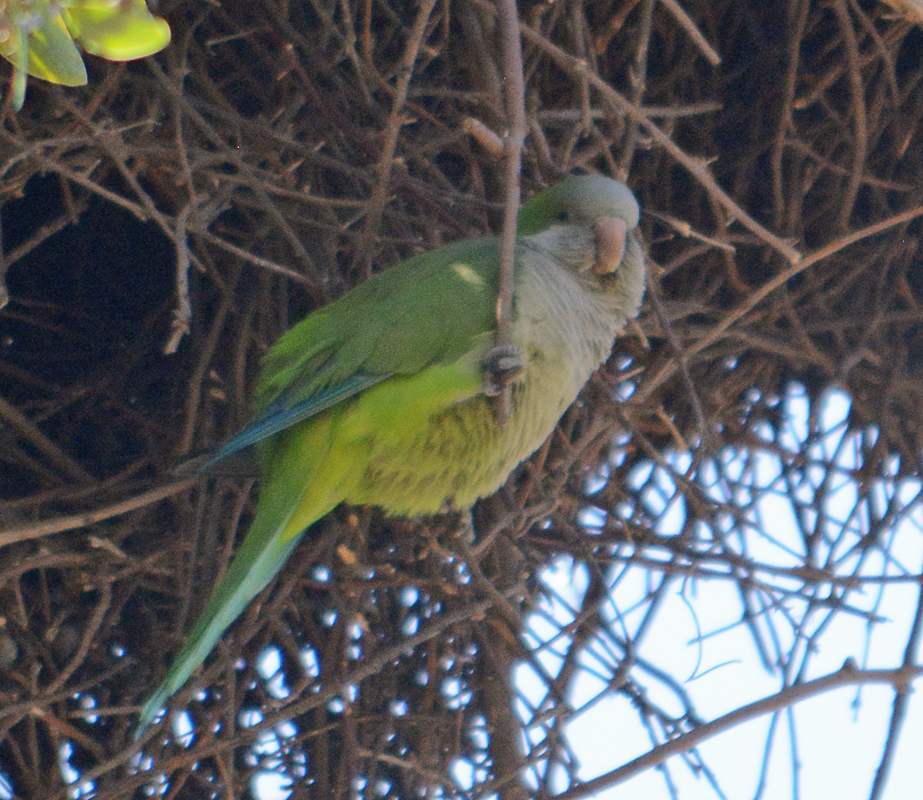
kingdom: Animalia
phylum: Chordata
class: Aves
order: Psittaciformes
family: Psittacidae
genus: Myiopsitta
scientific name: Myiopsitta monachus
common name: Monk parakeet
